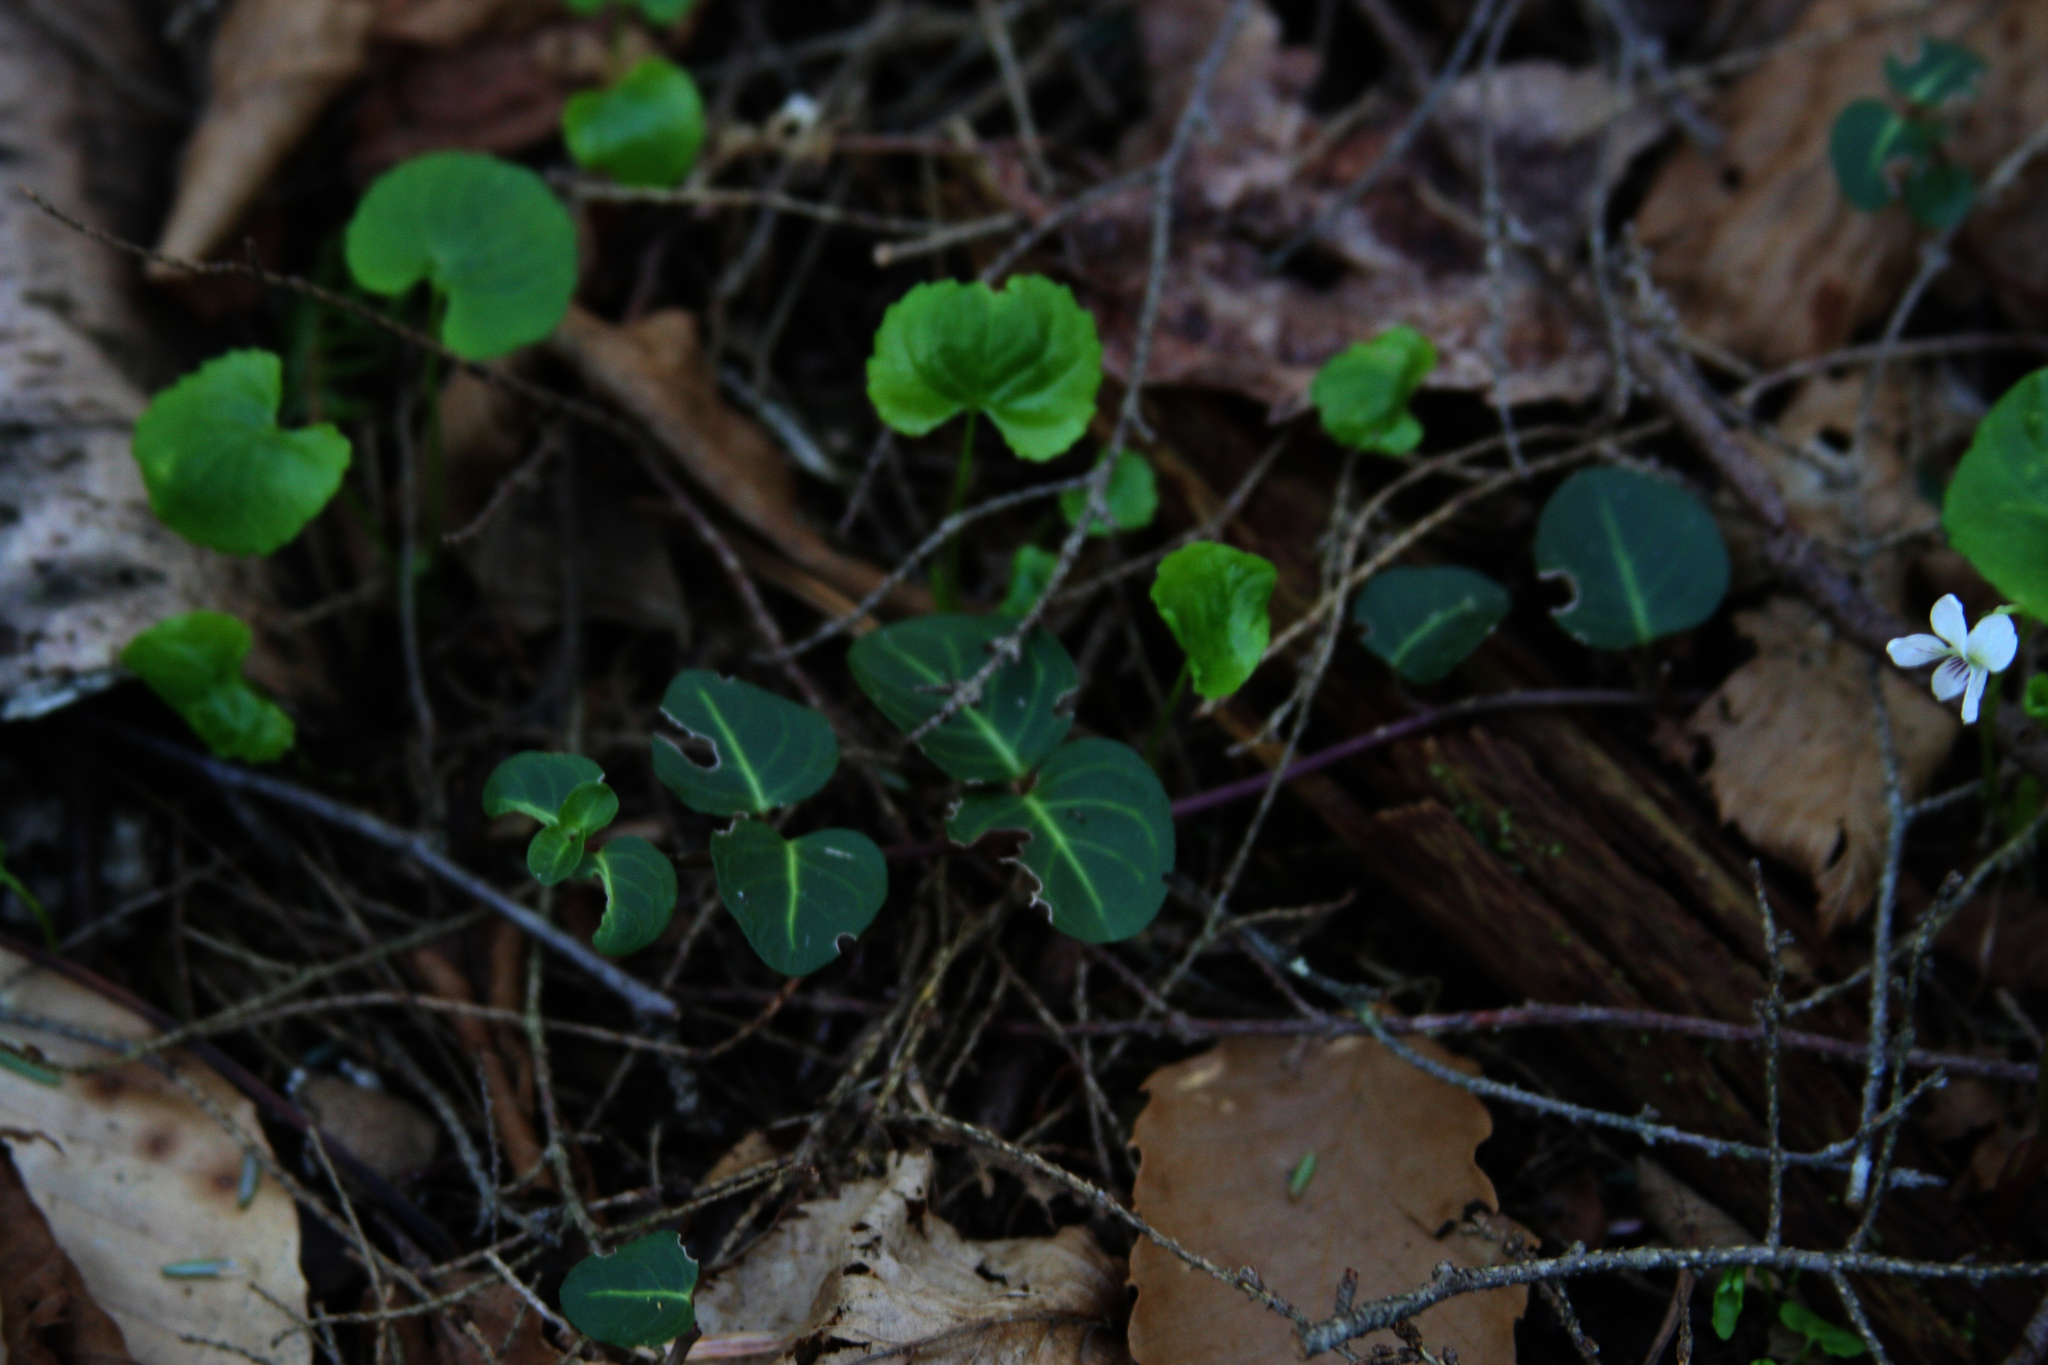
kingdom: Plantae
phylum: Tracheophyta
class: Magnoliopsida
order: Gentianales
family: Rubiaceae
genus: Mitchella
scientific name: Mitchella repens
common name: Partridge-berry
